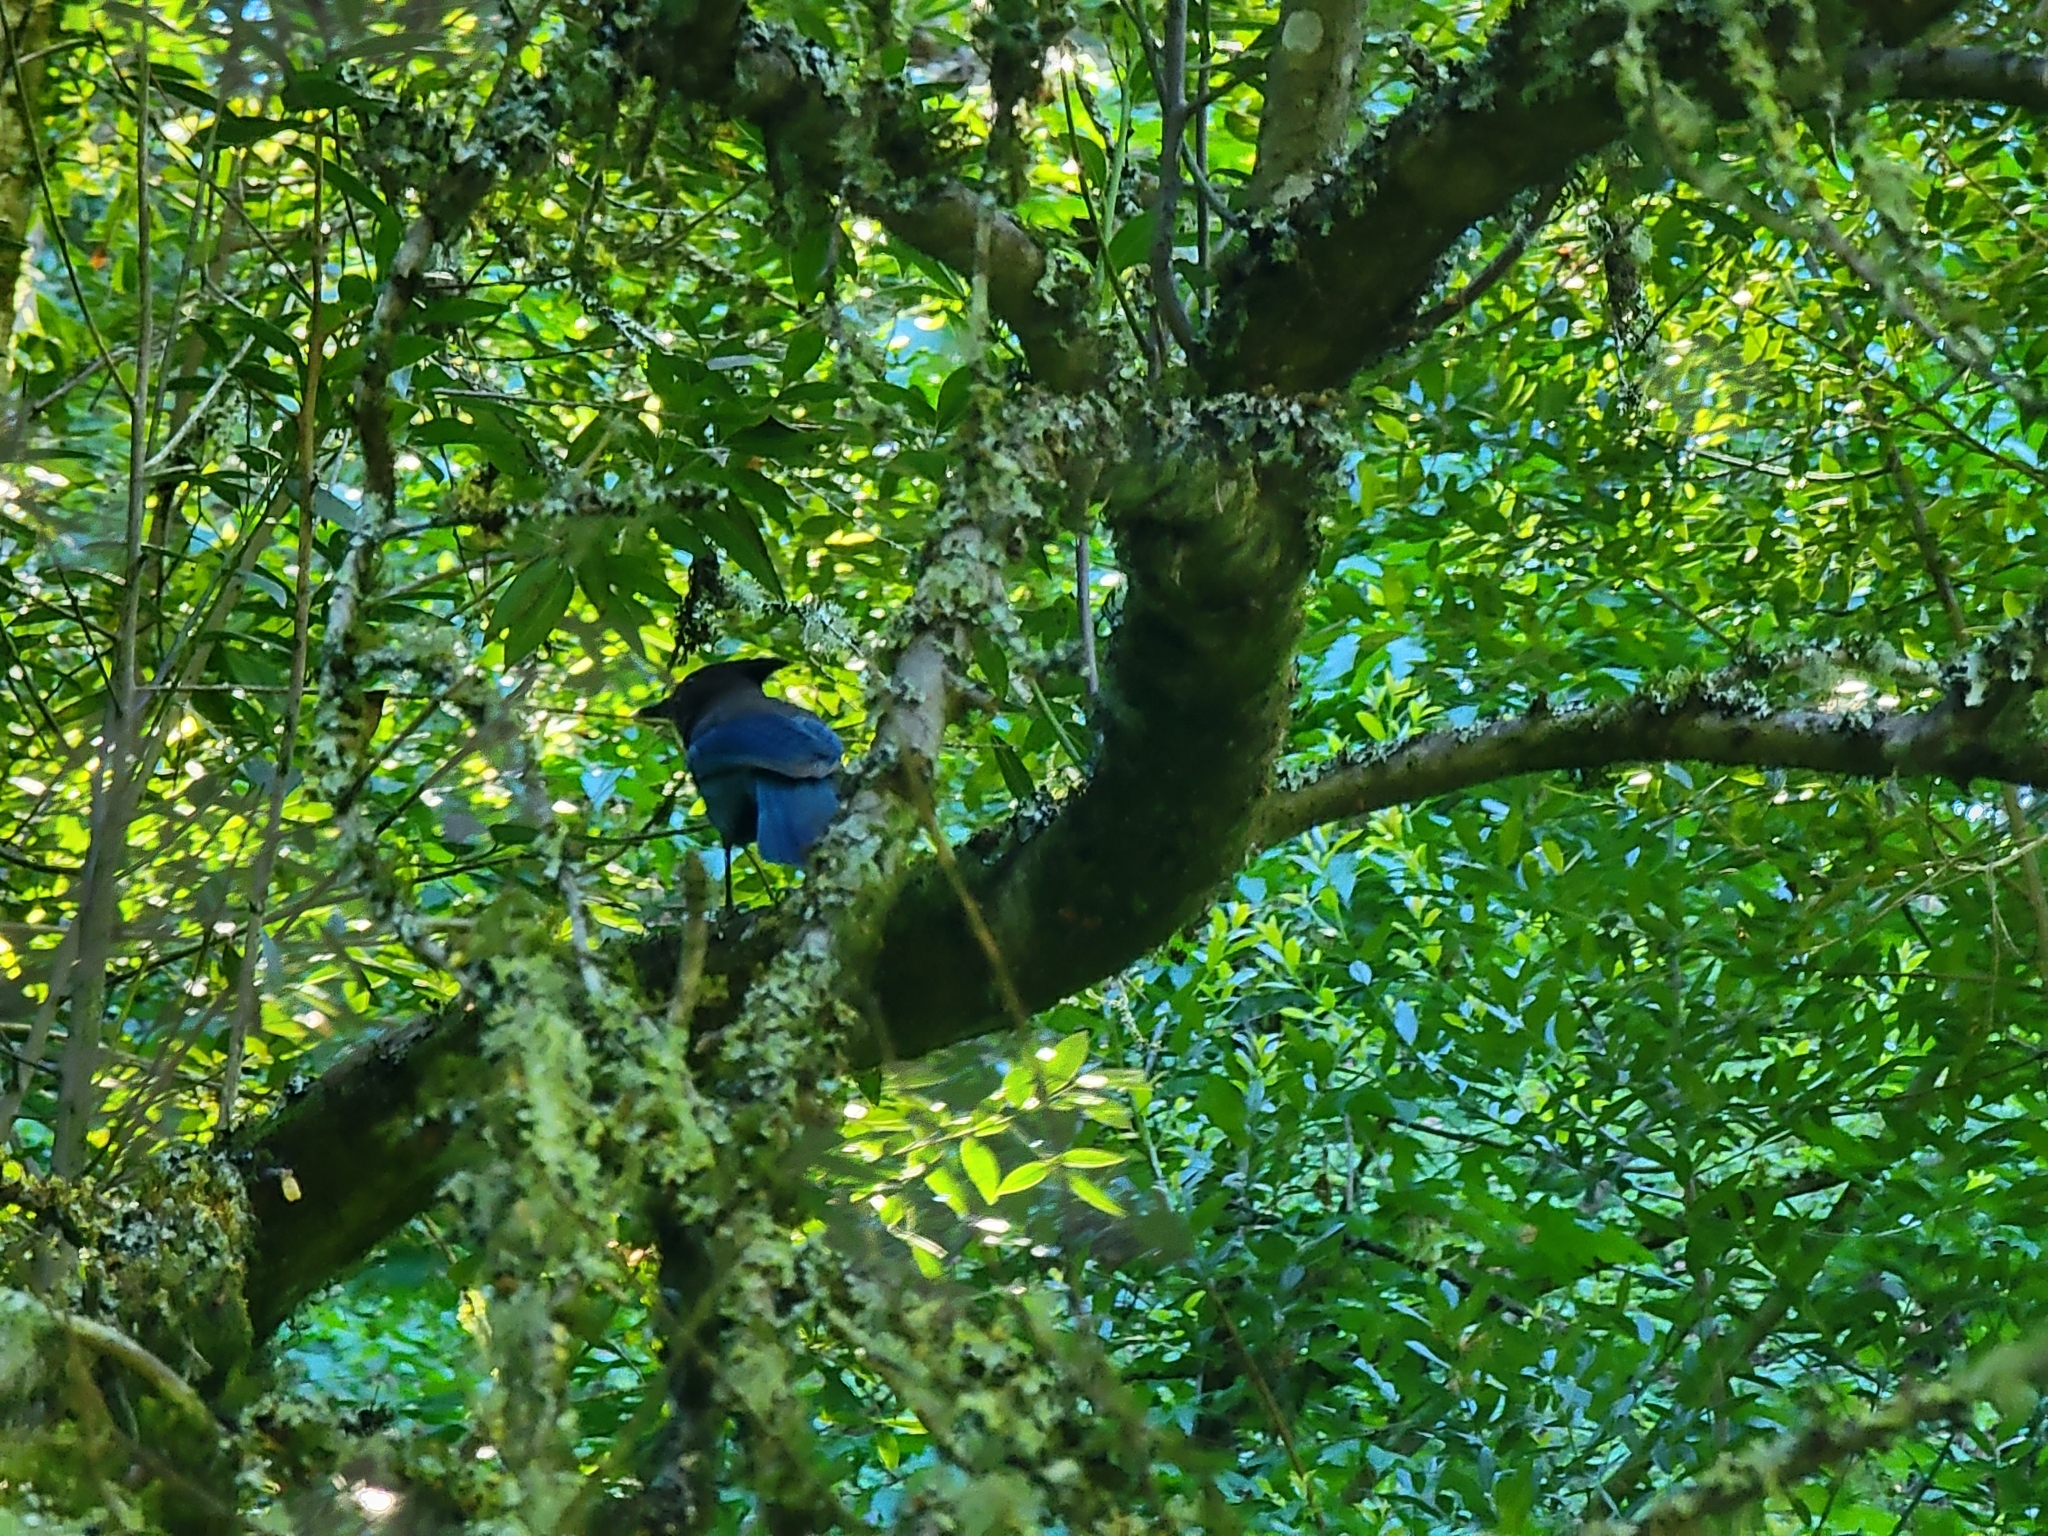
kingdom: Animalia
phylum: Chordata
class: Aves
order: Passeriformes
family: Corvidae
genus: Cyanocitta
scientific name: Cyanocitta stelleri
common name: Steller's jay
